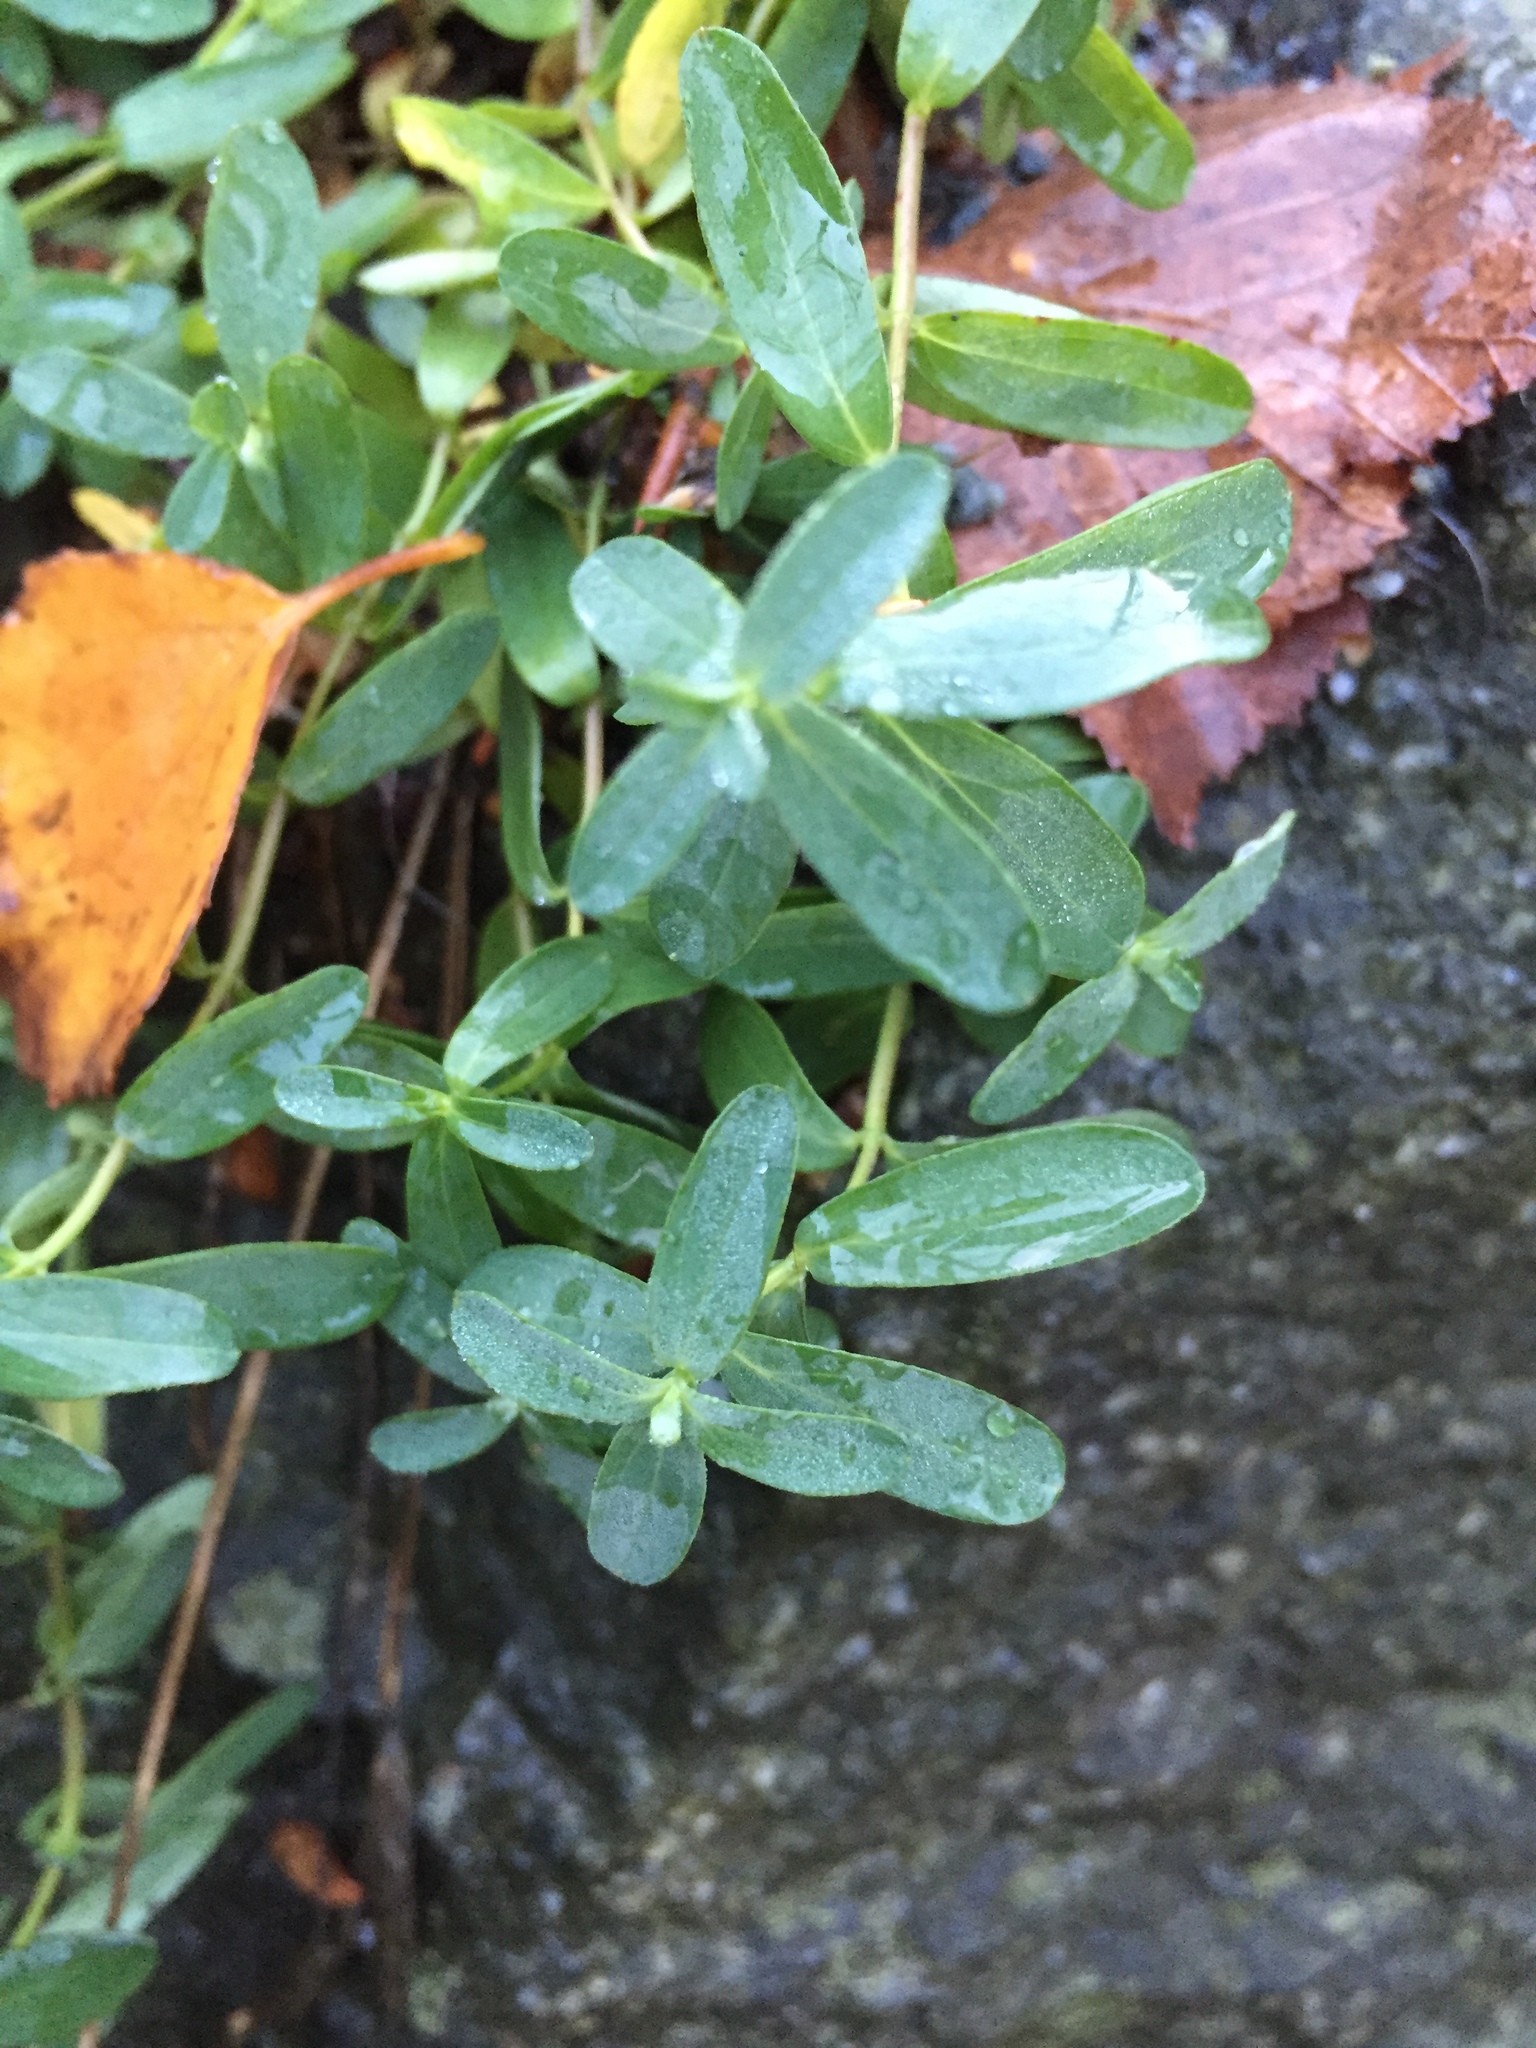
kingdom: Plantae
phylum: Tracheophyta
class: Magnoliopsida
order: Malpighiales
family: Hypericaceae
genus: Hypericum
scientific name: Hypericum perforatum
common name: Common st. johnswort
